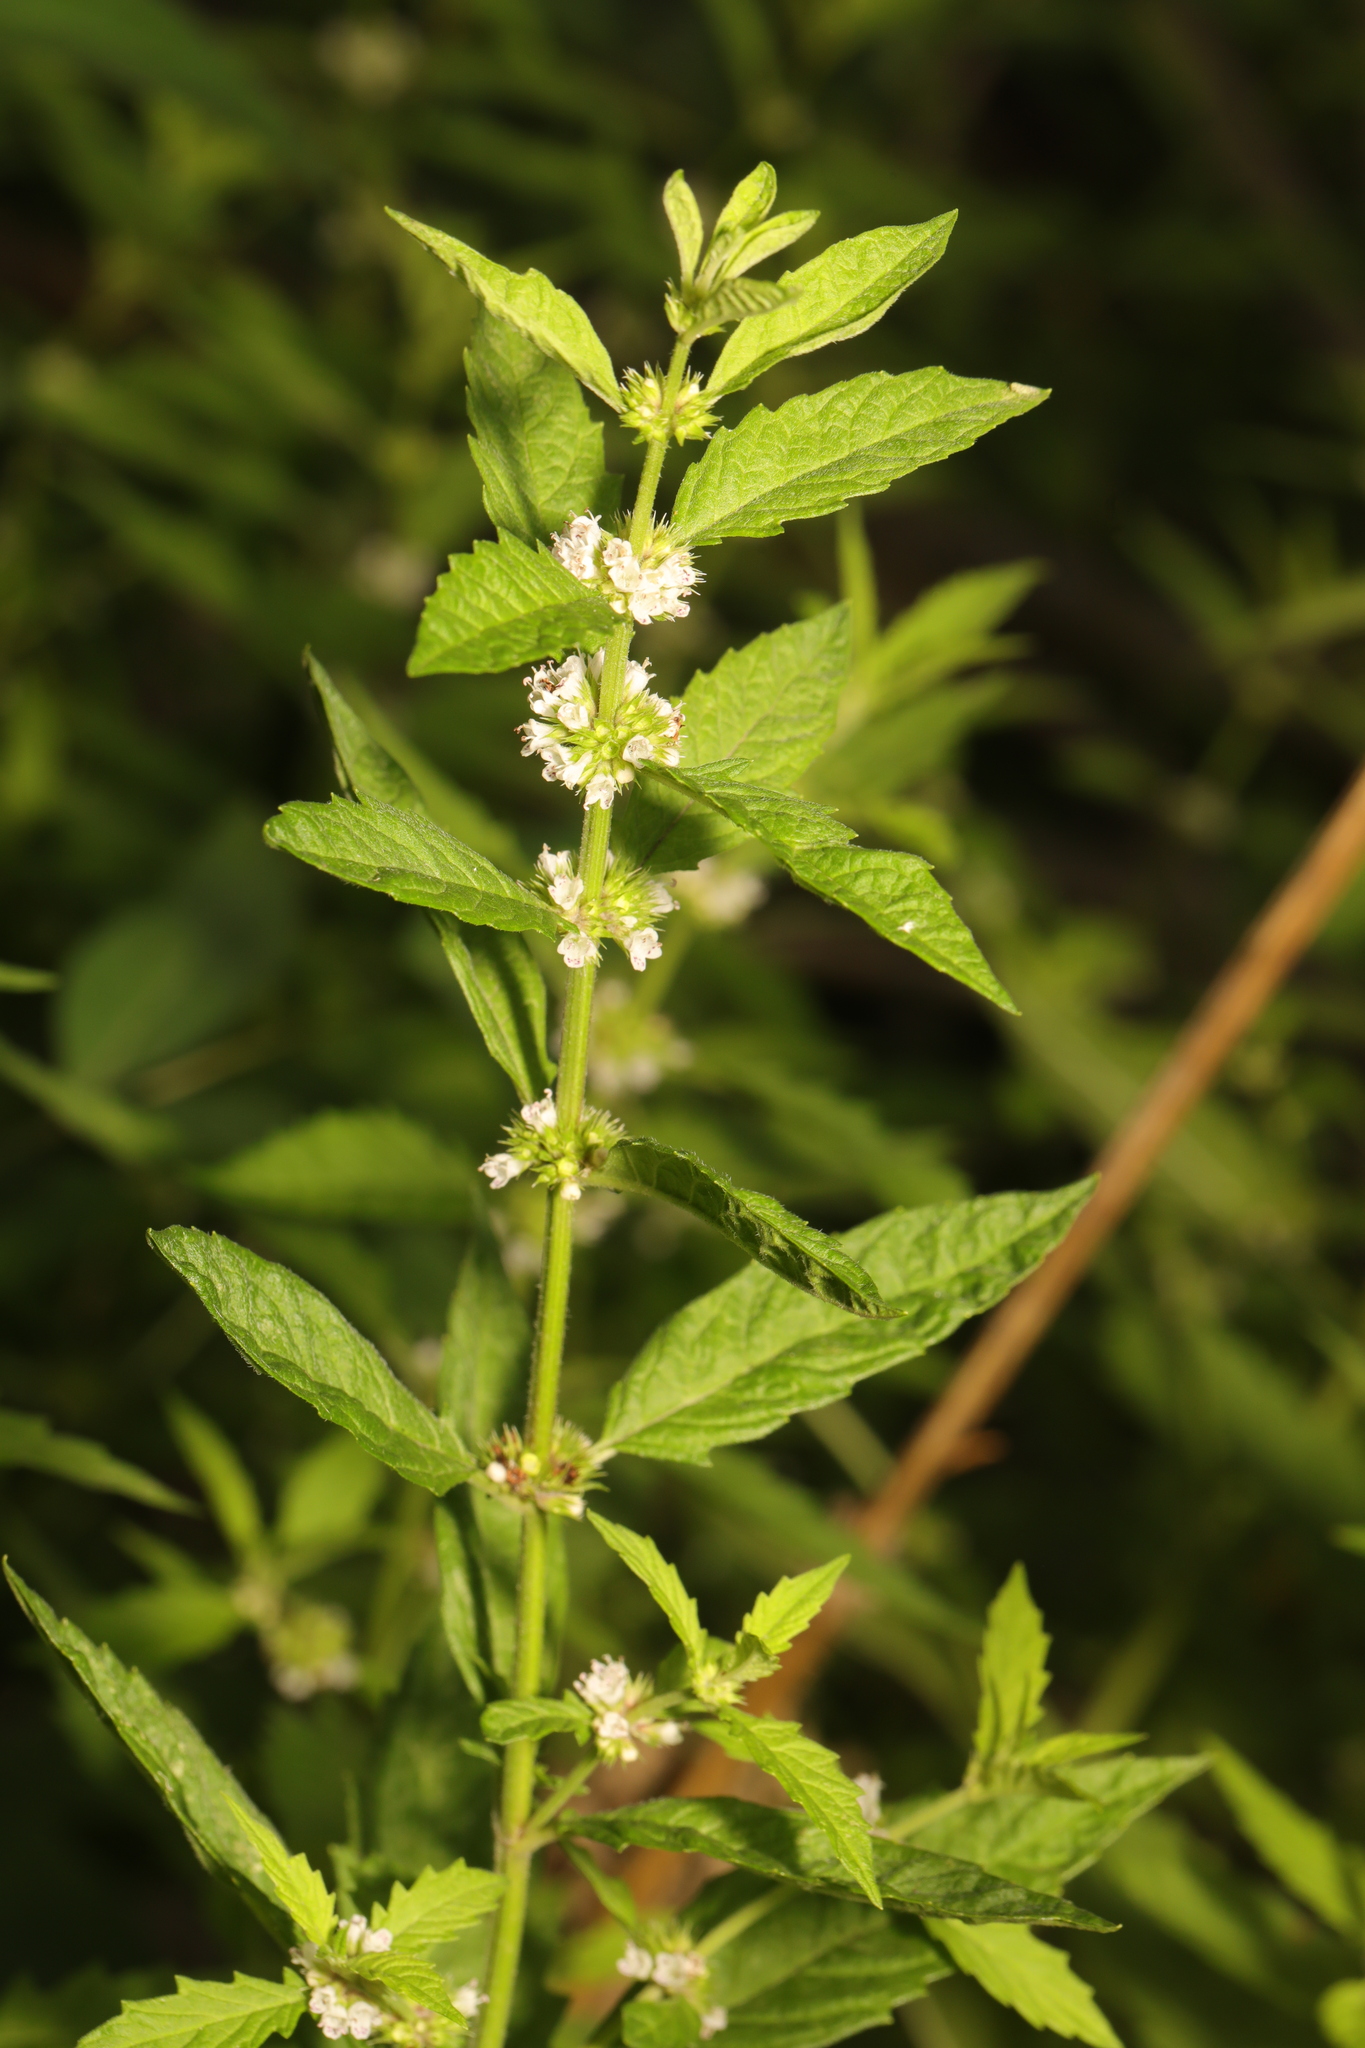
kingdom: Plantae
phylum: Tracheophyta
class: Magnoliopsida
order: Lamiales
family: Lamiaceae
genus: Lycopus
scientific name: Lycopus europaeus
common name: European bugleweed
